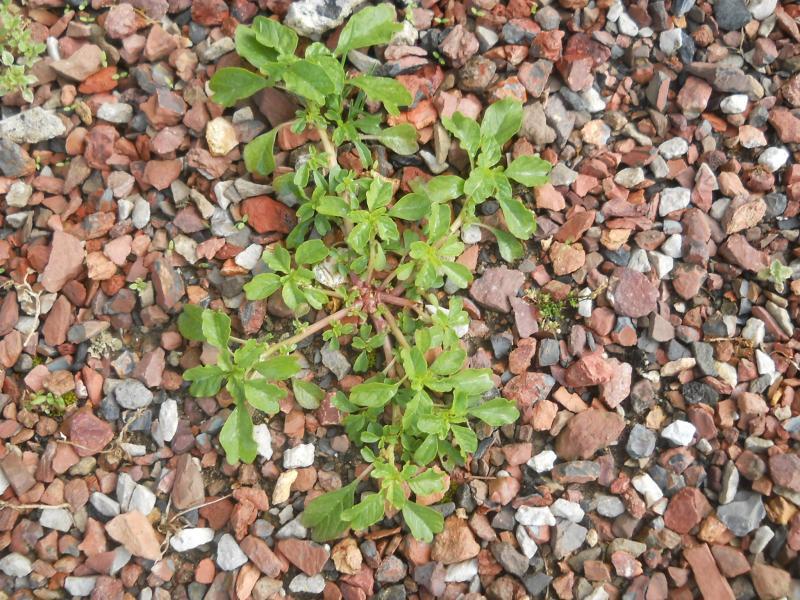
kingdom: Plantae
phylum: Tracheophyta
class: Magnoliopsida
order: Caryophyllales
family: Amaranthaceae
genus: Amaranthus
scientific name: Amaranthus blitum
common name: Purple amaranth
